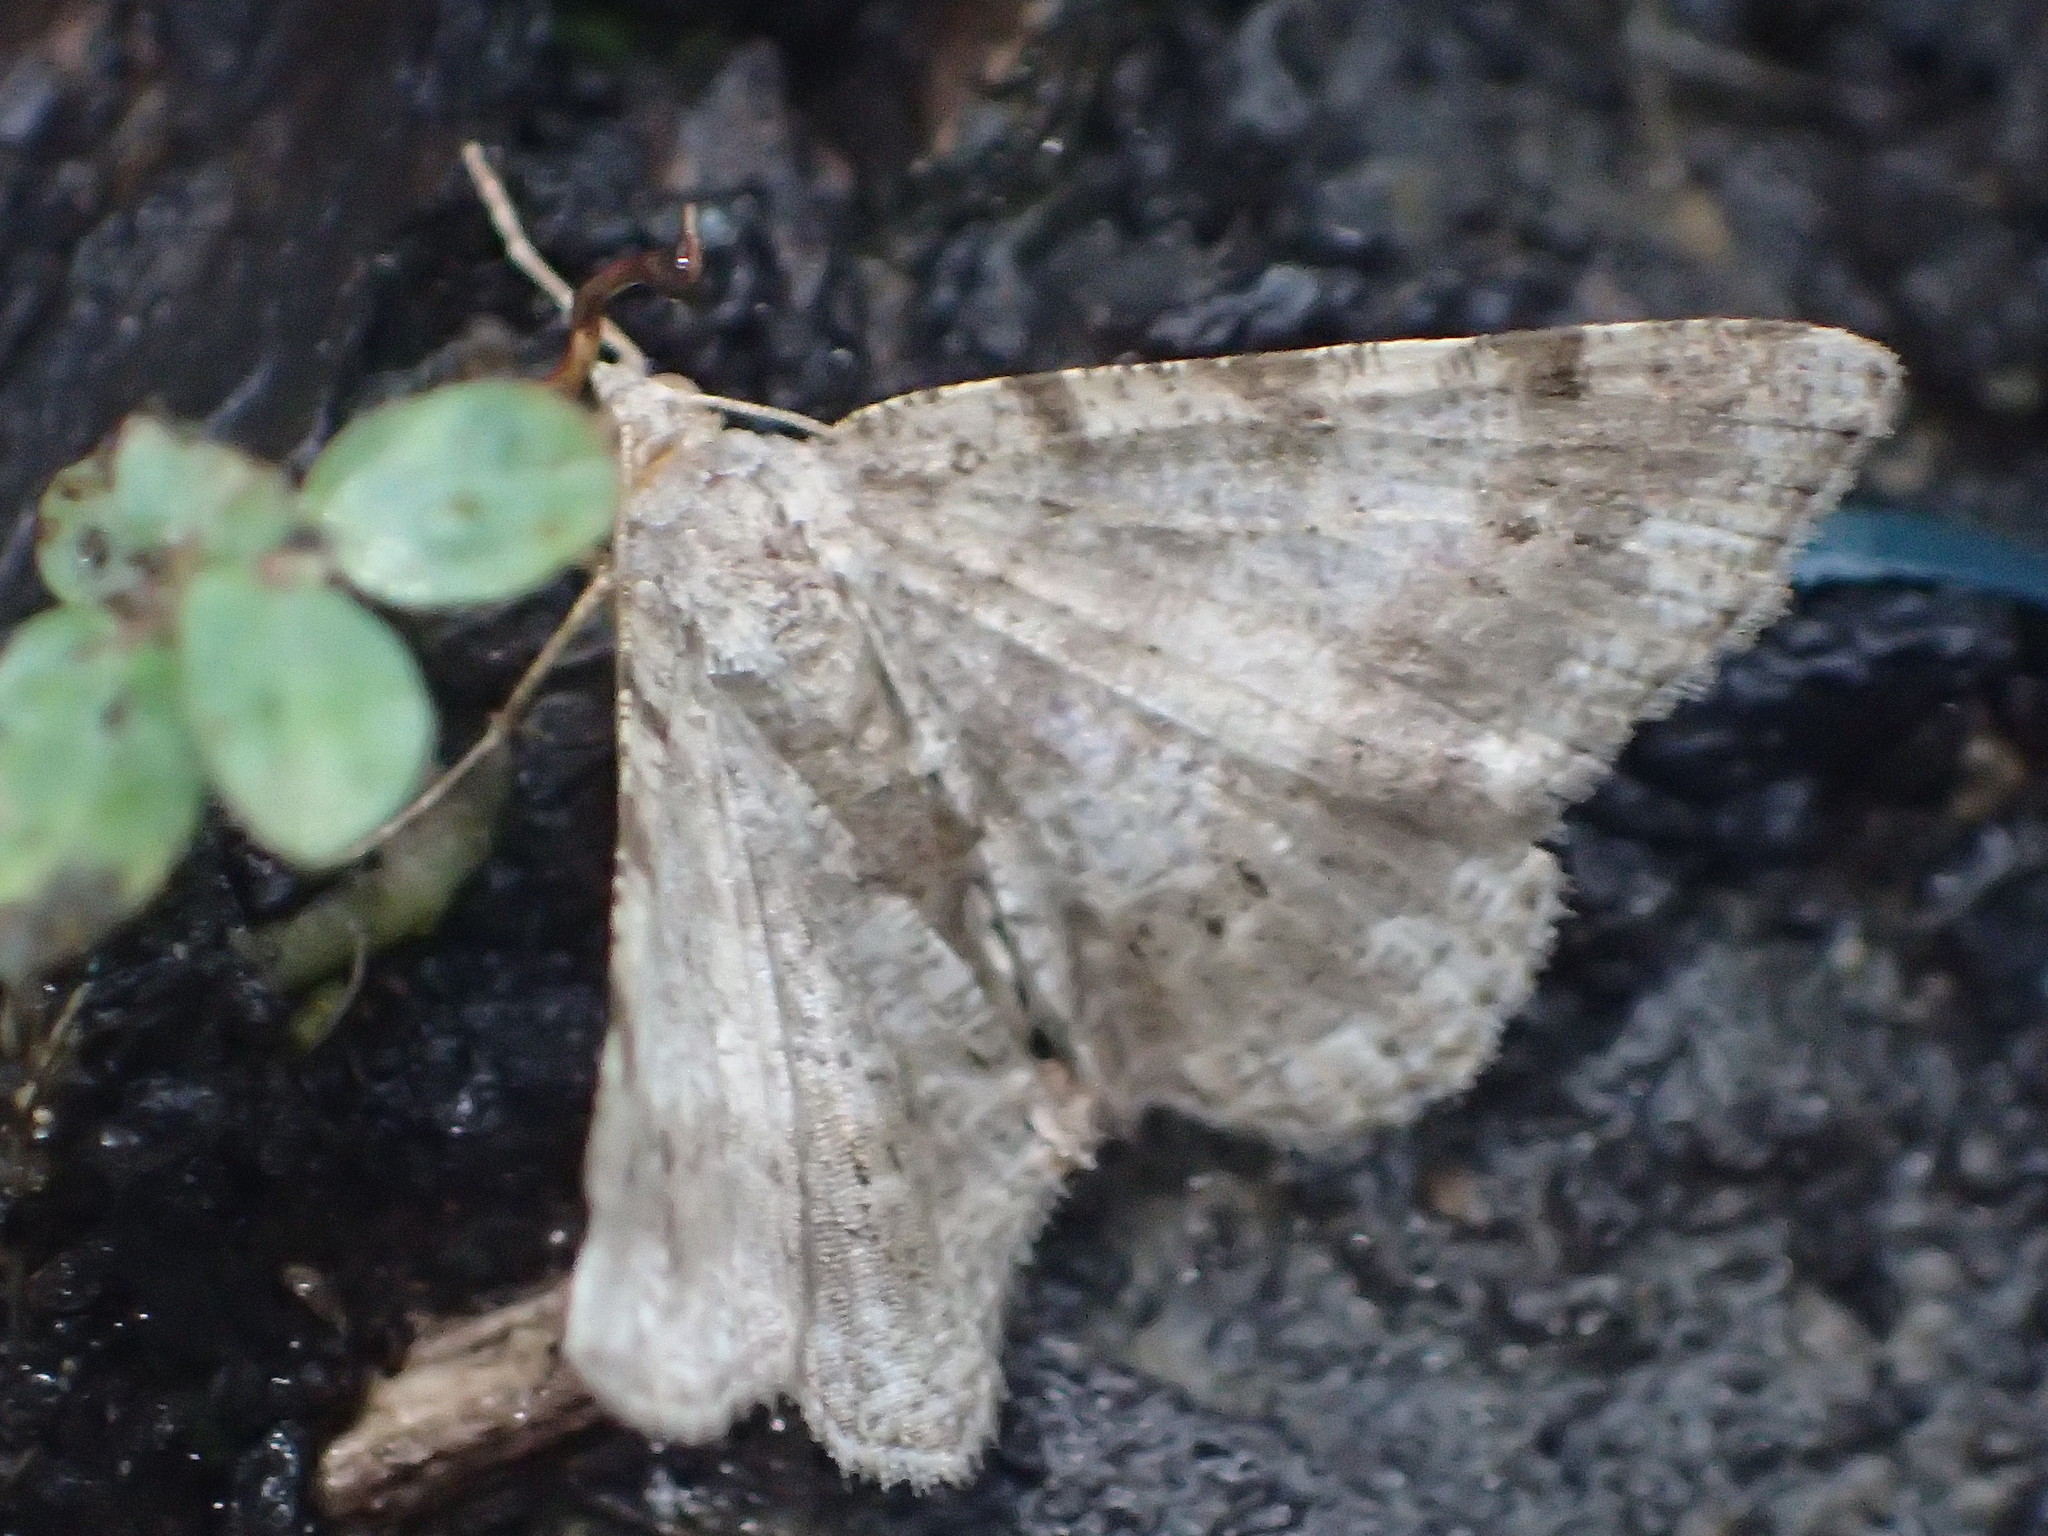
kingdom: Animalia
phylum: Arthropoda
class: Insecta
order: Lepidoptera
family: Geometridae
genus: Digrammia
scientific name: Digrammia ocellinata
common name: Faint-spotted angle
